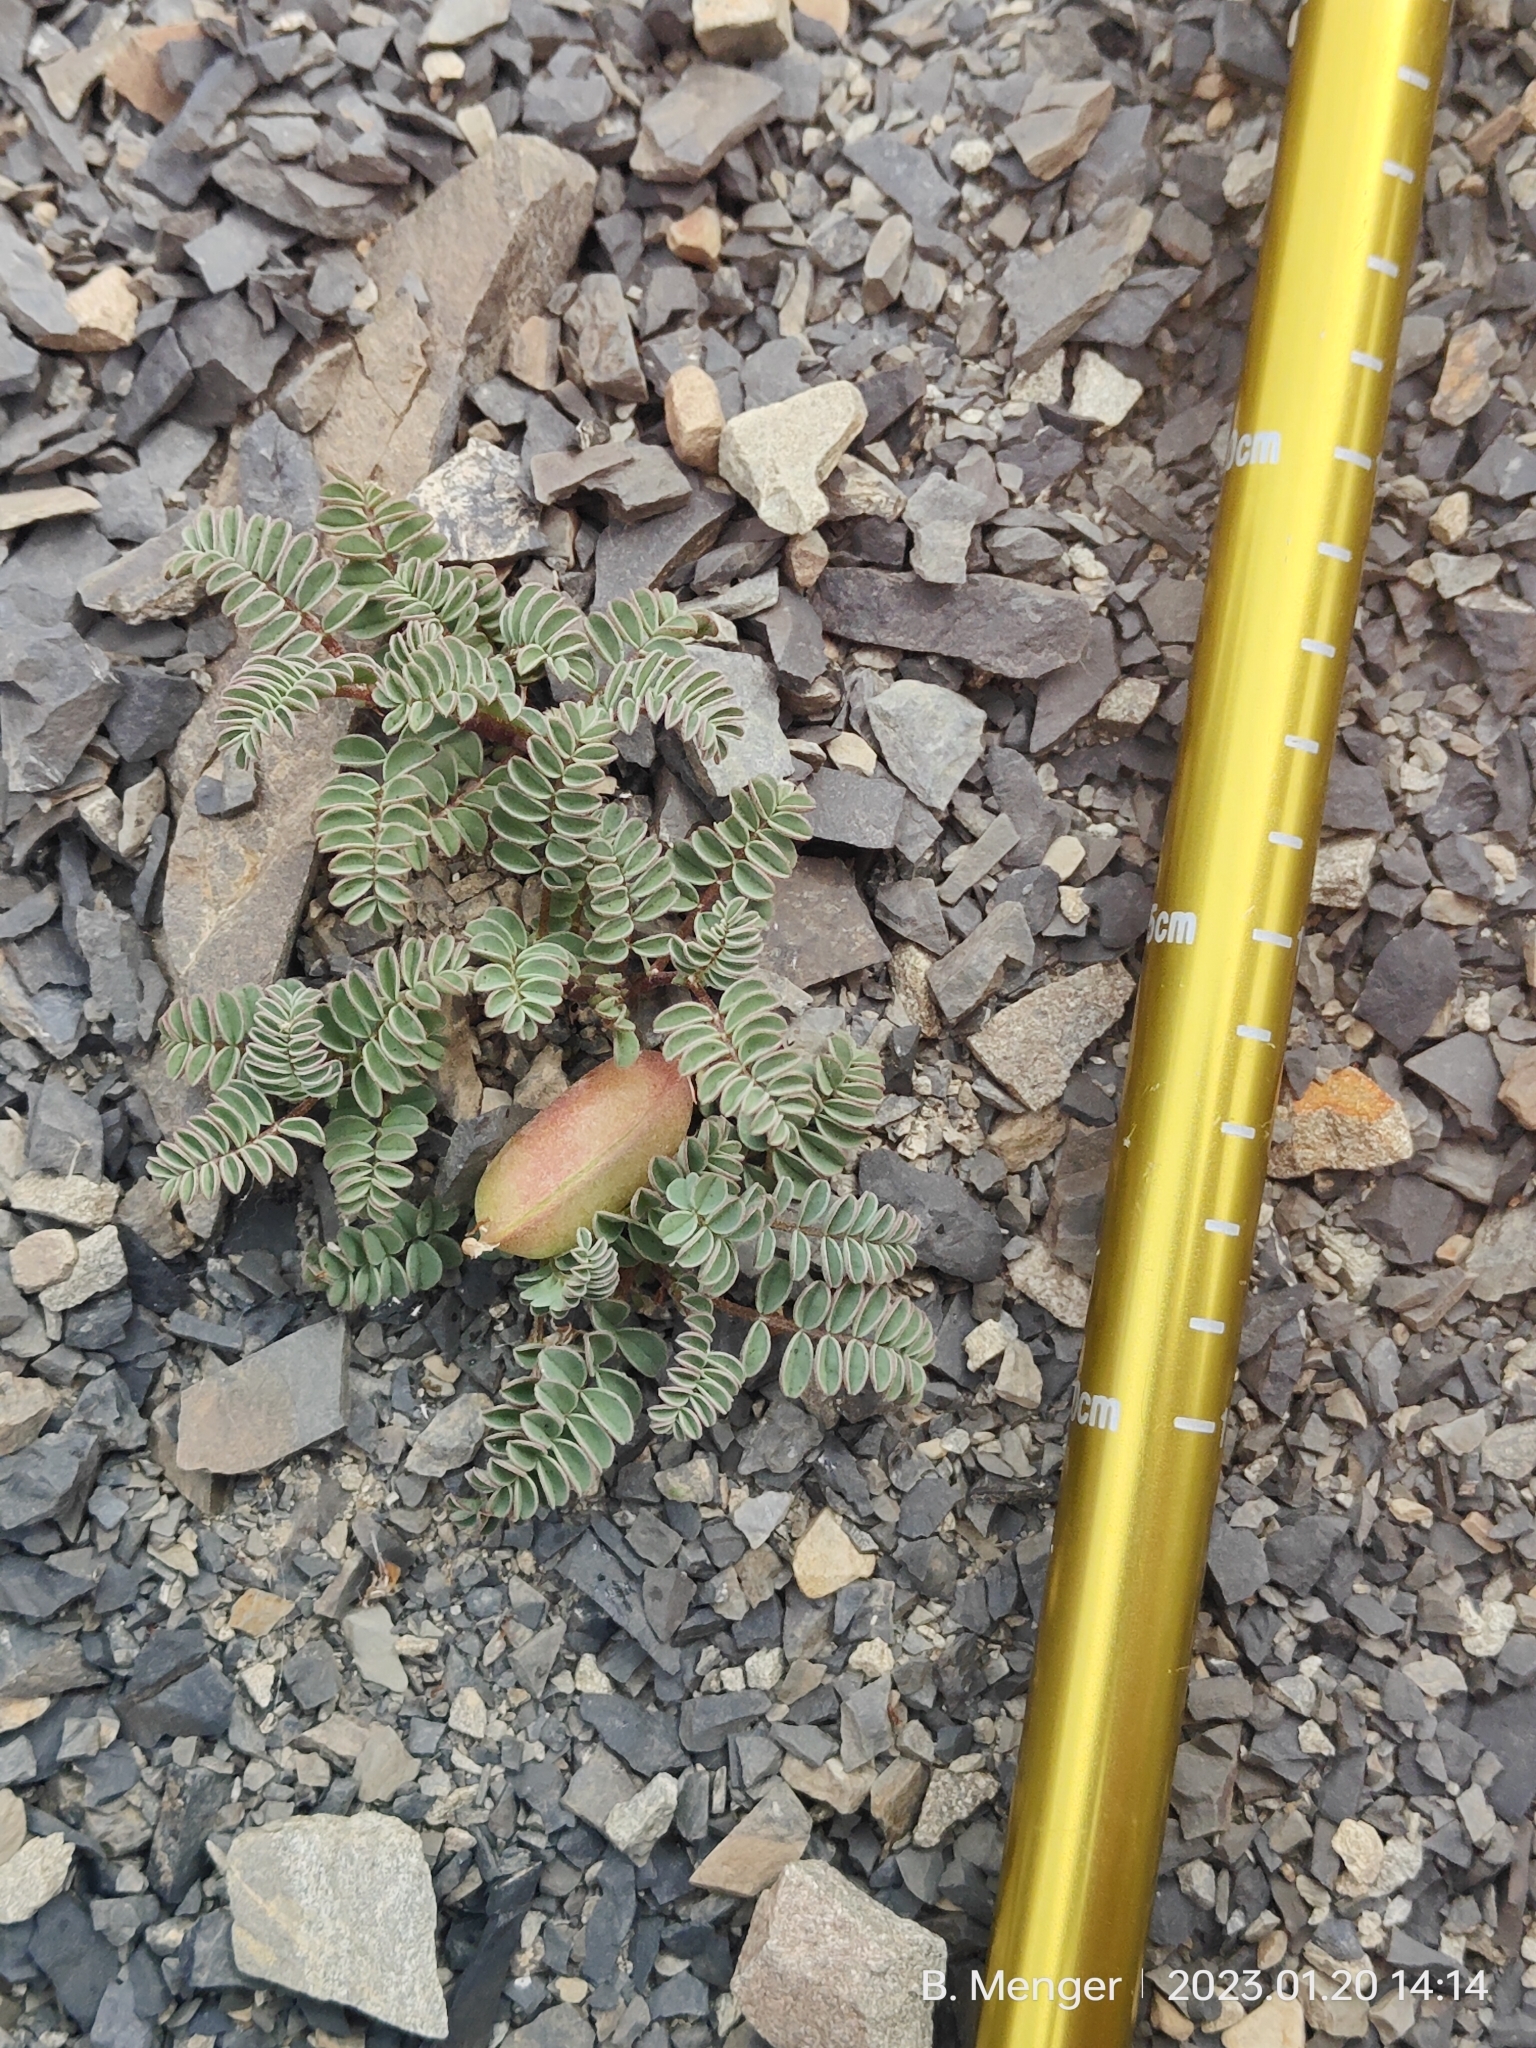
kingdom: Plantae
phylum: Tracheophyta
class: Magnoliopsida
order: Fabales
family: Fabaceae
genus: Montigena
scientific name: Montigena novae-zelandiae
